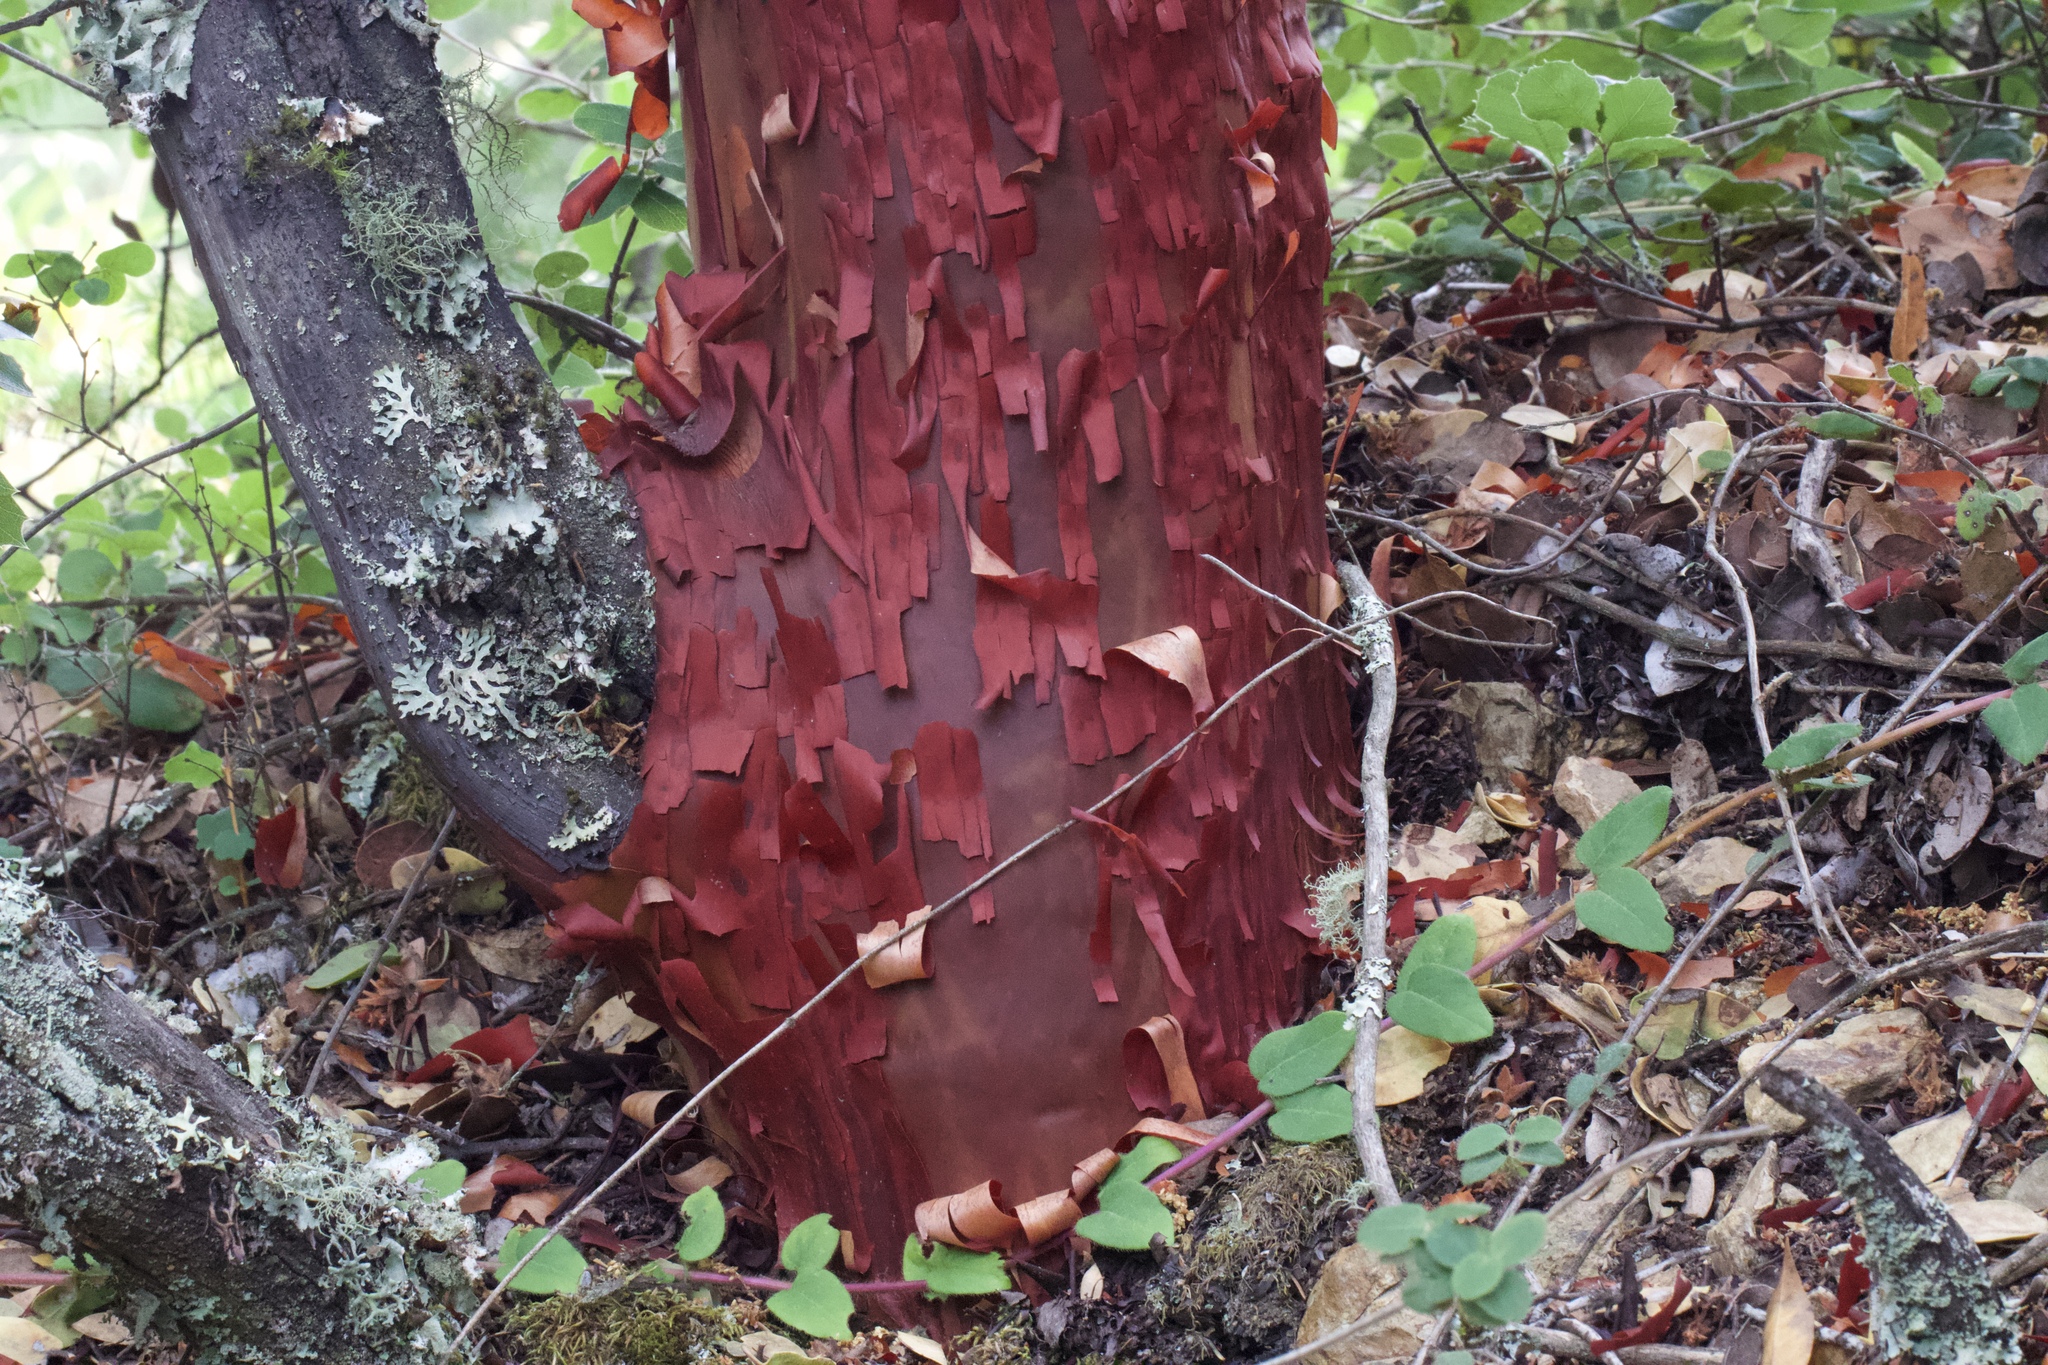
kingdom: Plantae
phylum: Tracheophyta
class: Magnoliopsida
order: Ericales
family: Ericaceae
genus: Arctostaphylos
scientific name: Arctostaphylos glandulosa
